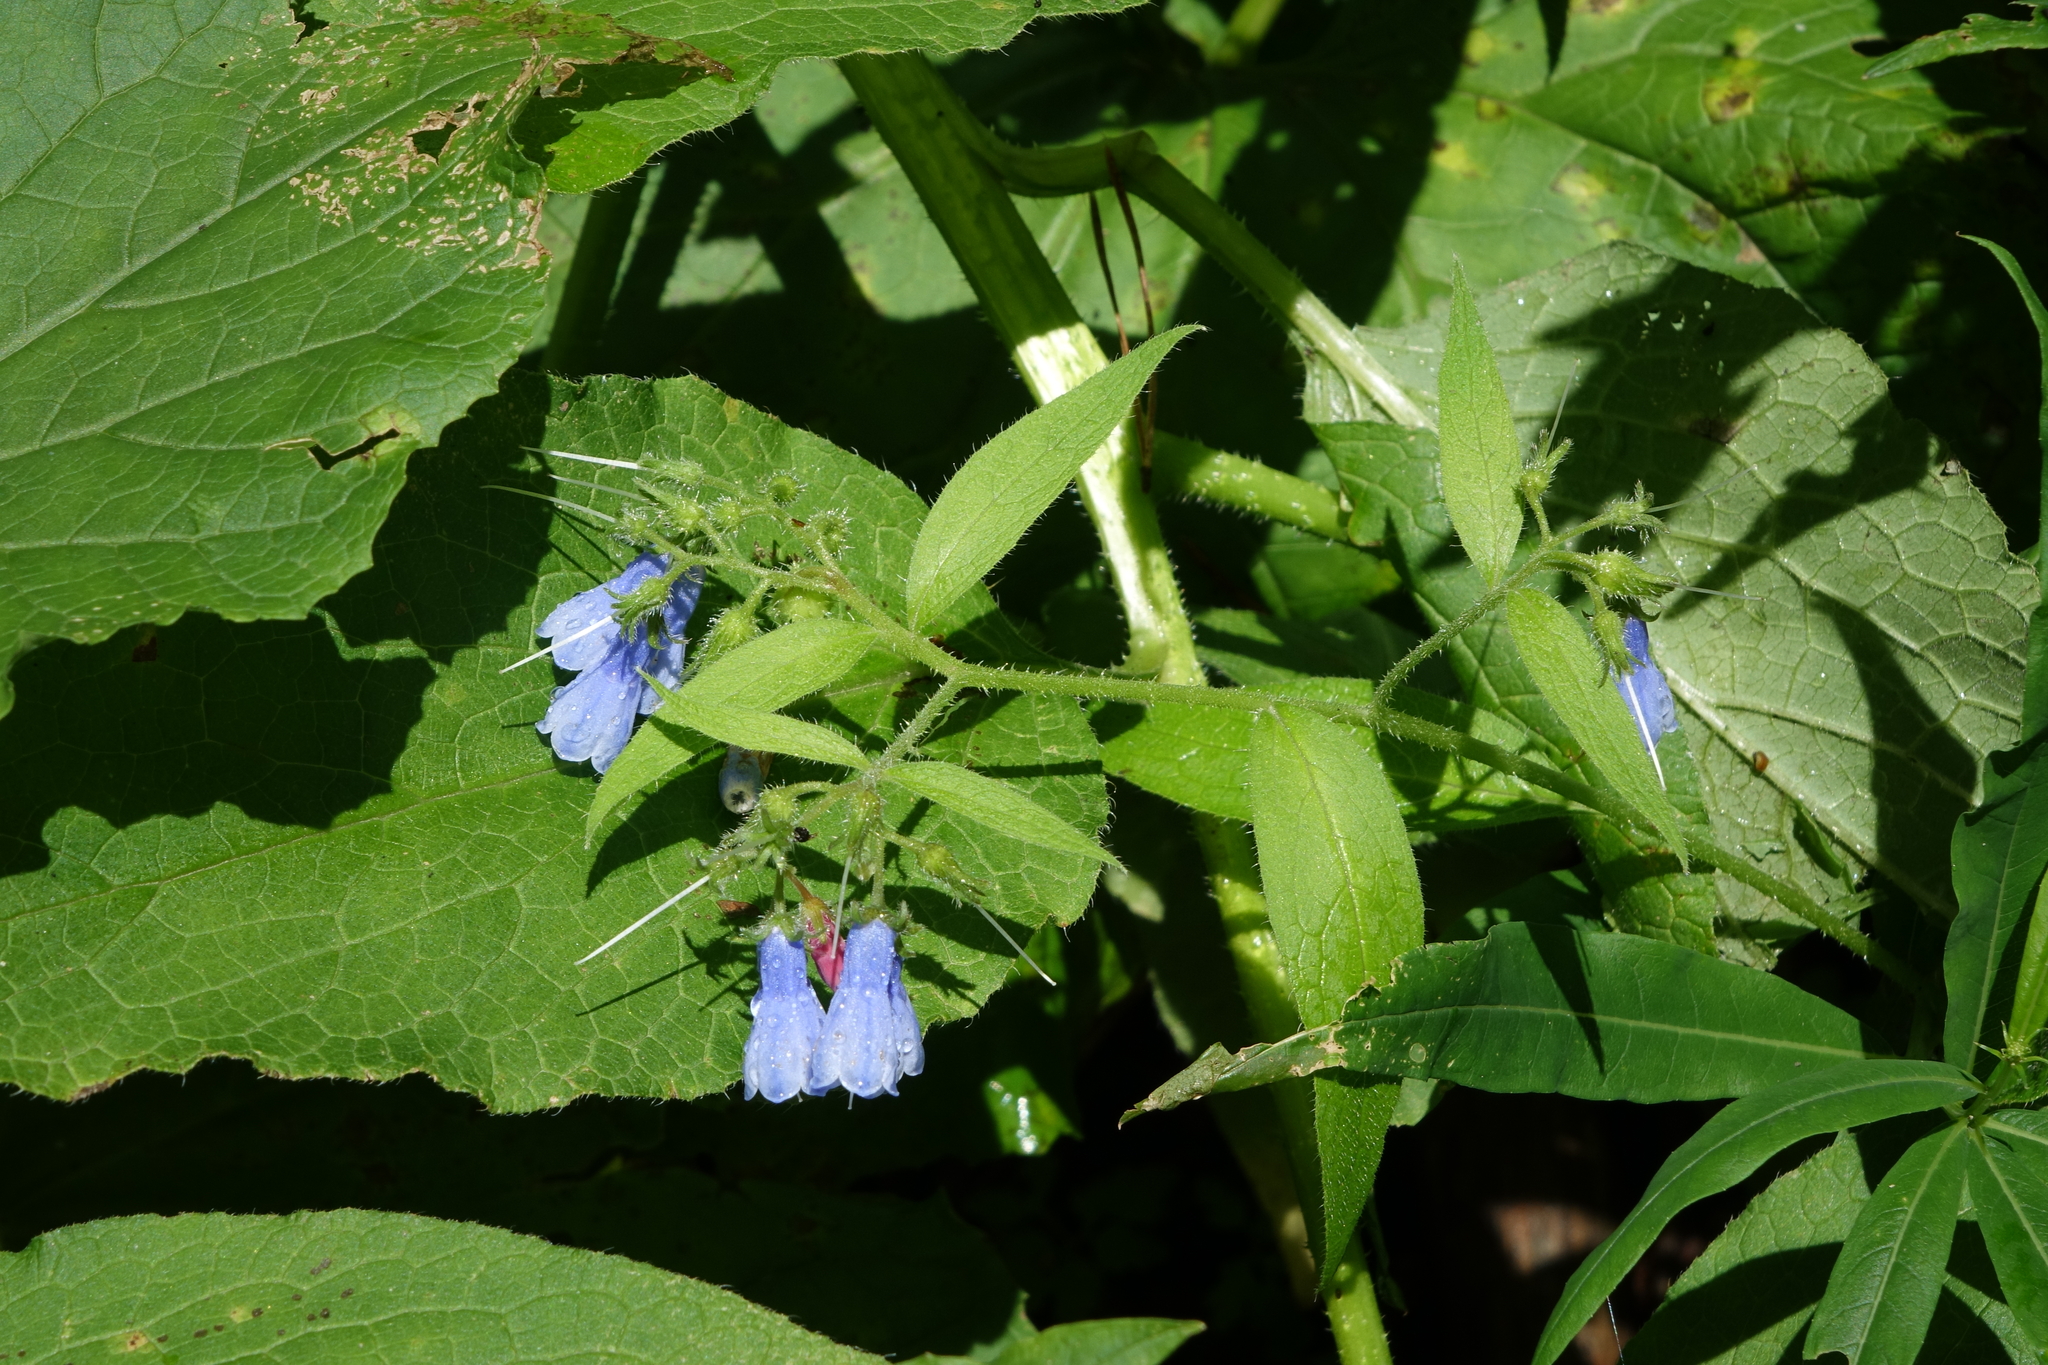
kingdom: Plantae
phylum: Tracheophyta
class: Magnoliopsida
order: Boraginales
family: Boraginaceae
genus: Symphytum
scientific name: Symphytum asperum
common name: Prickly comfrey
